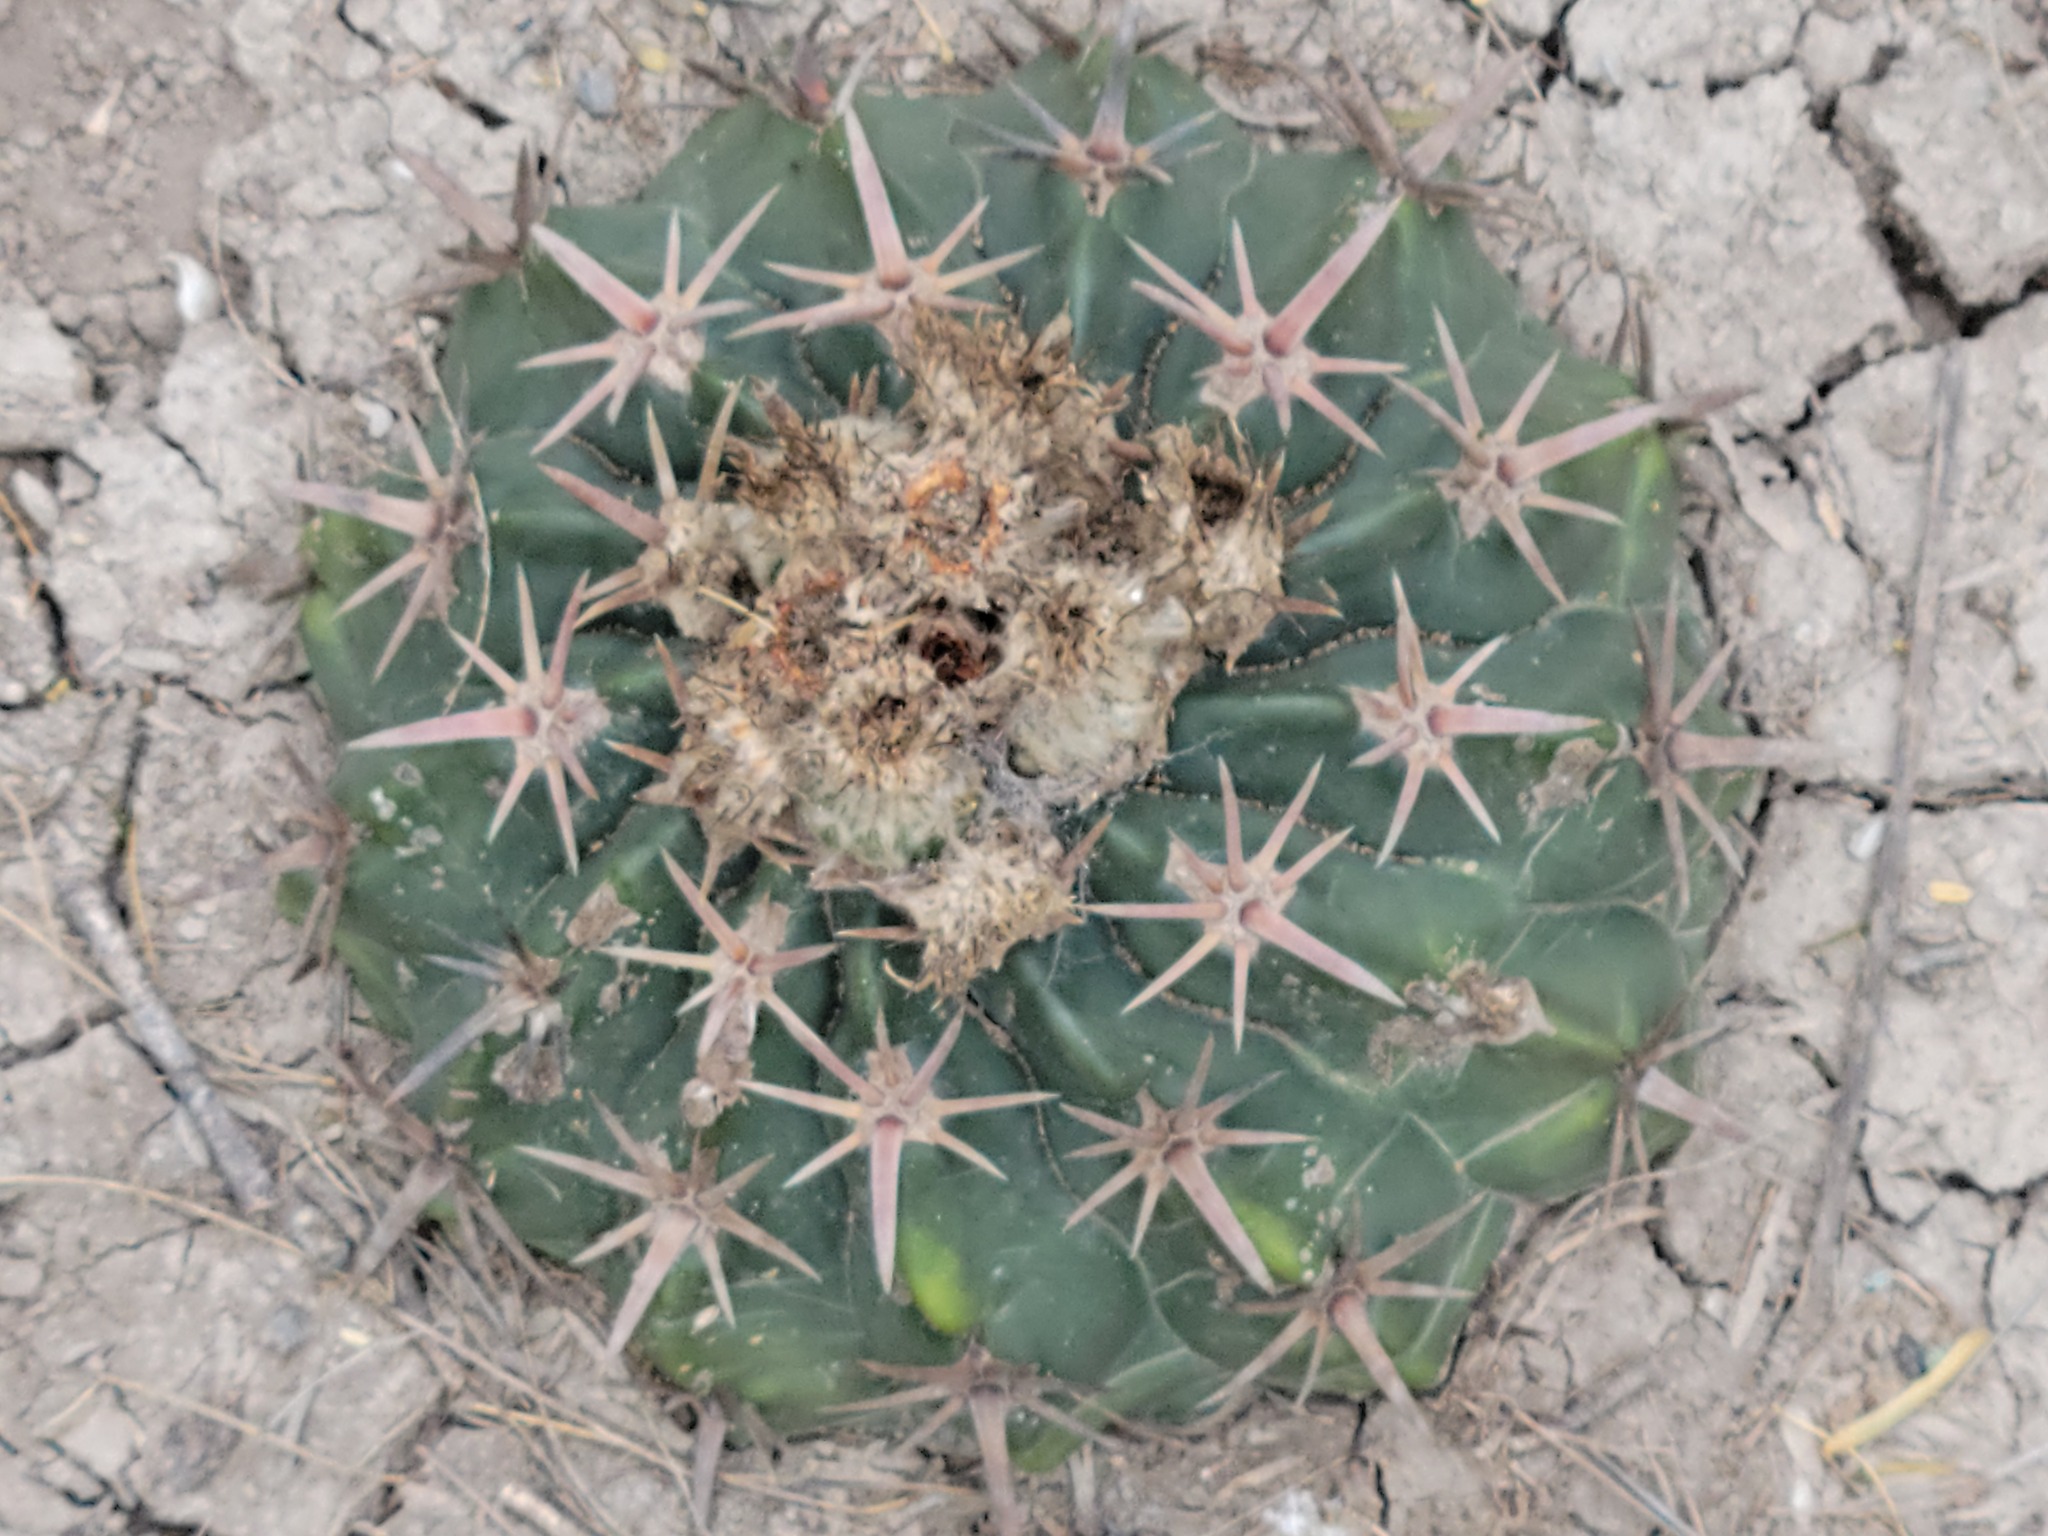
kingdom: Plantae
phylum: Tracheophyta
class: Magnoliopsida
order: Caryophyllales
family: Cactaceae
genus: Echinocactus
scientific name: Echinocactus texensis
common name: Devil's pincushion
